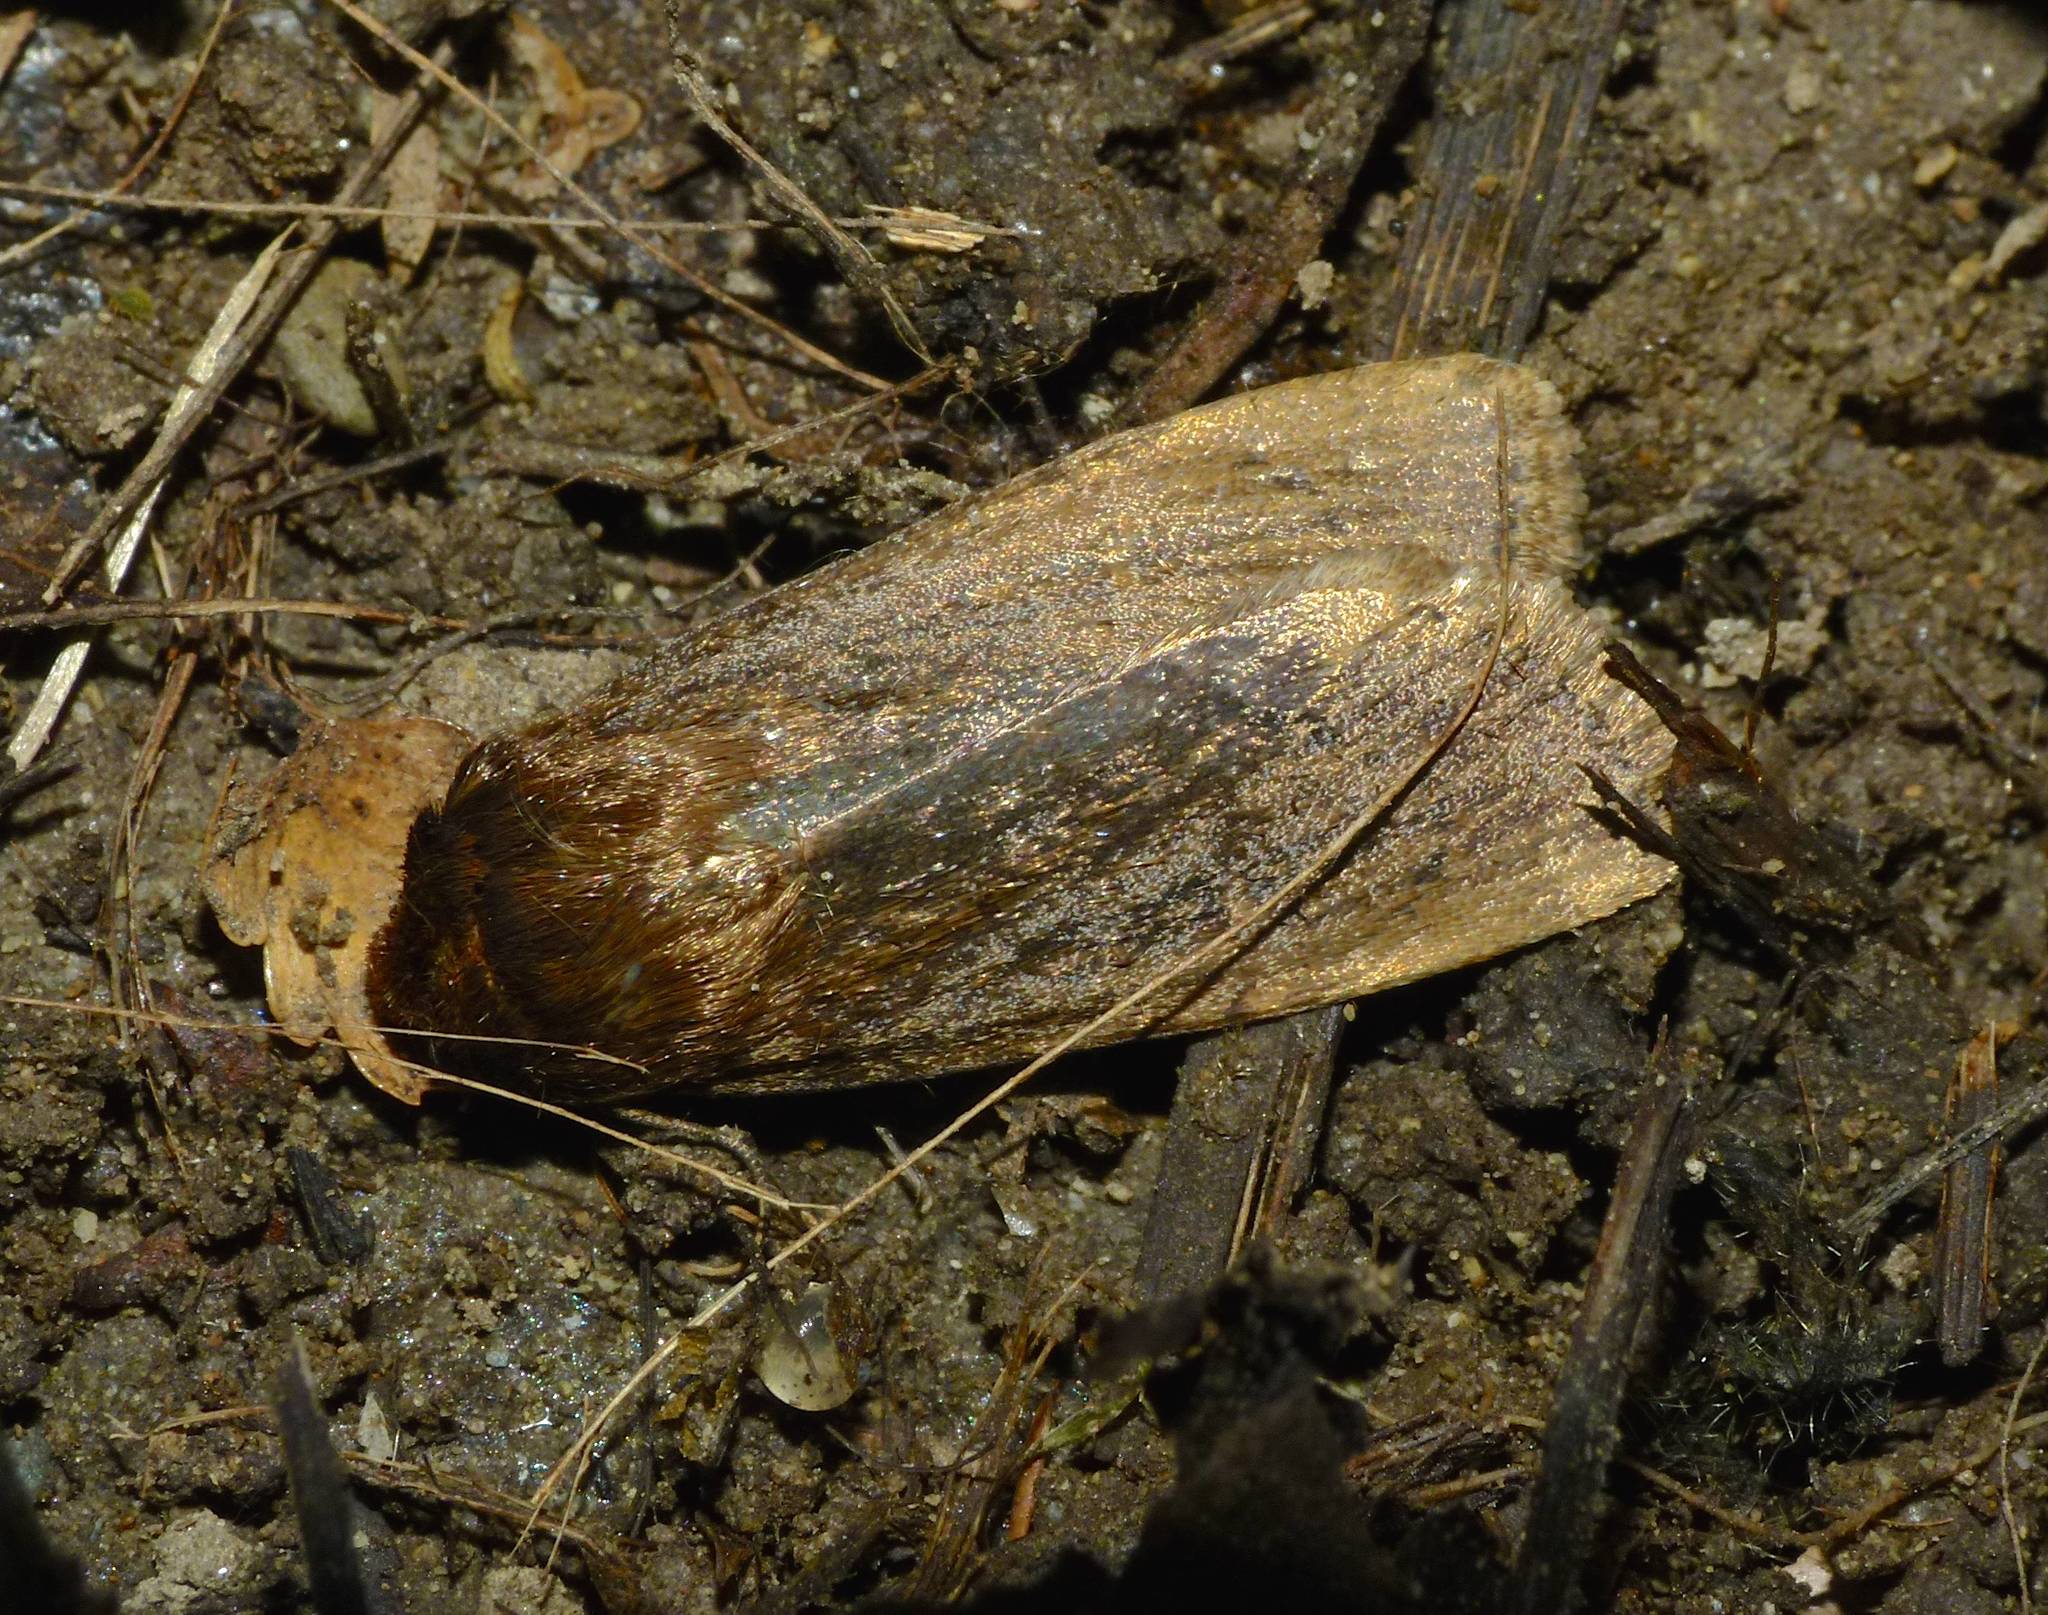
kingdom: Animalia
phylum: Arthropoda
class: Insecta
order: Lepidoptera
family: Noctuidae
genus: Bityla
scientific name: Bityla defigurata
